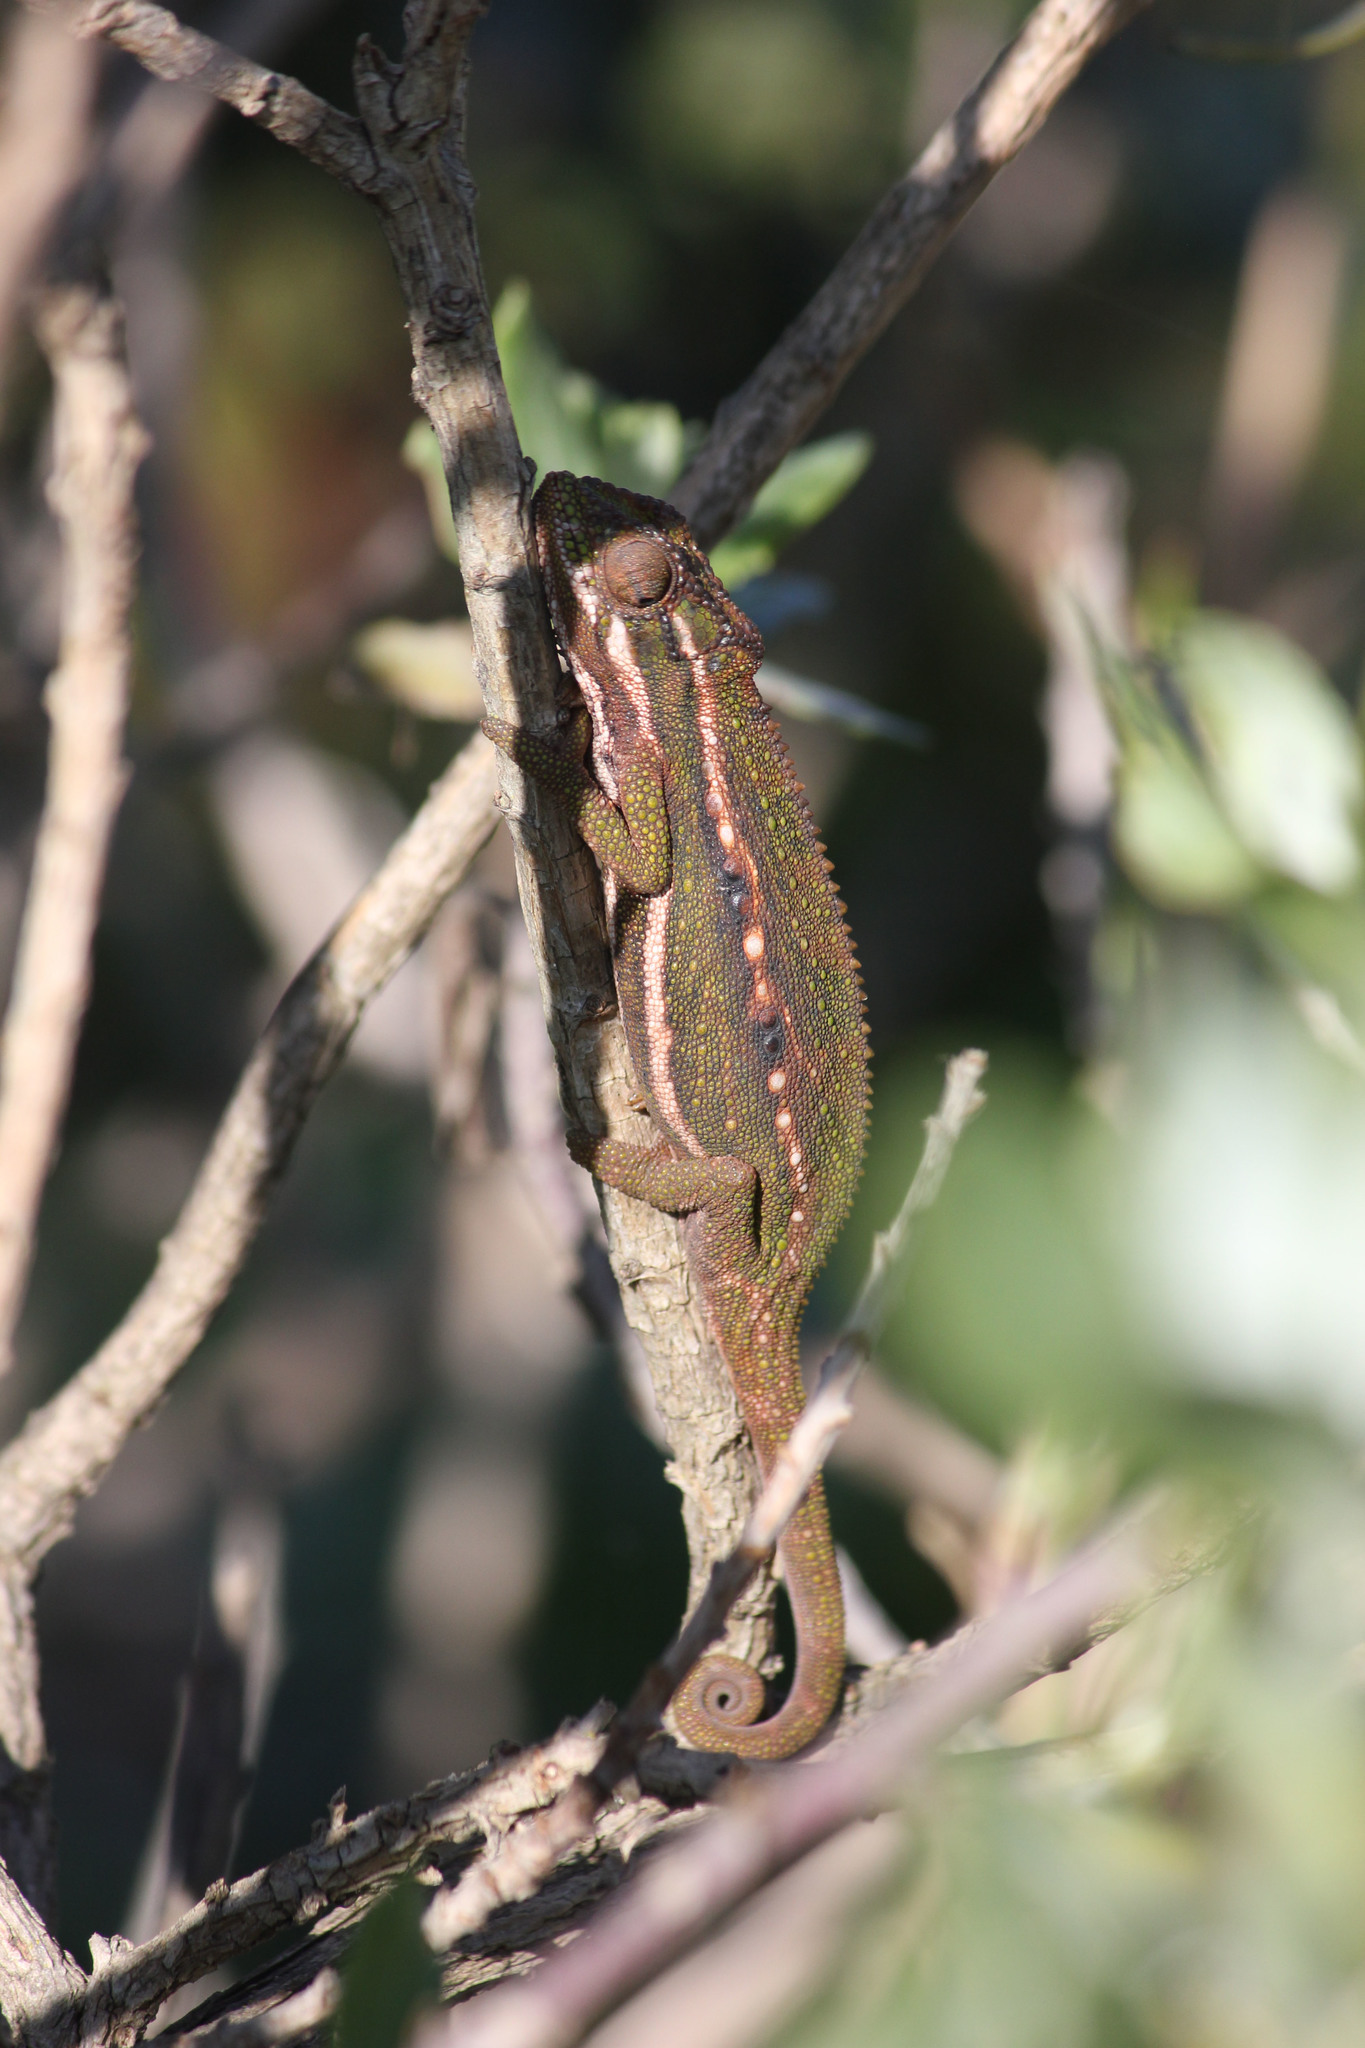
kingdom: Animalia
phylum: Chordata
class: Squamata
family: Chamaeleonidae
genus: Bradypodion
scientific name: Bradypodion pumilum
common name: Cape dwarf chameleon
